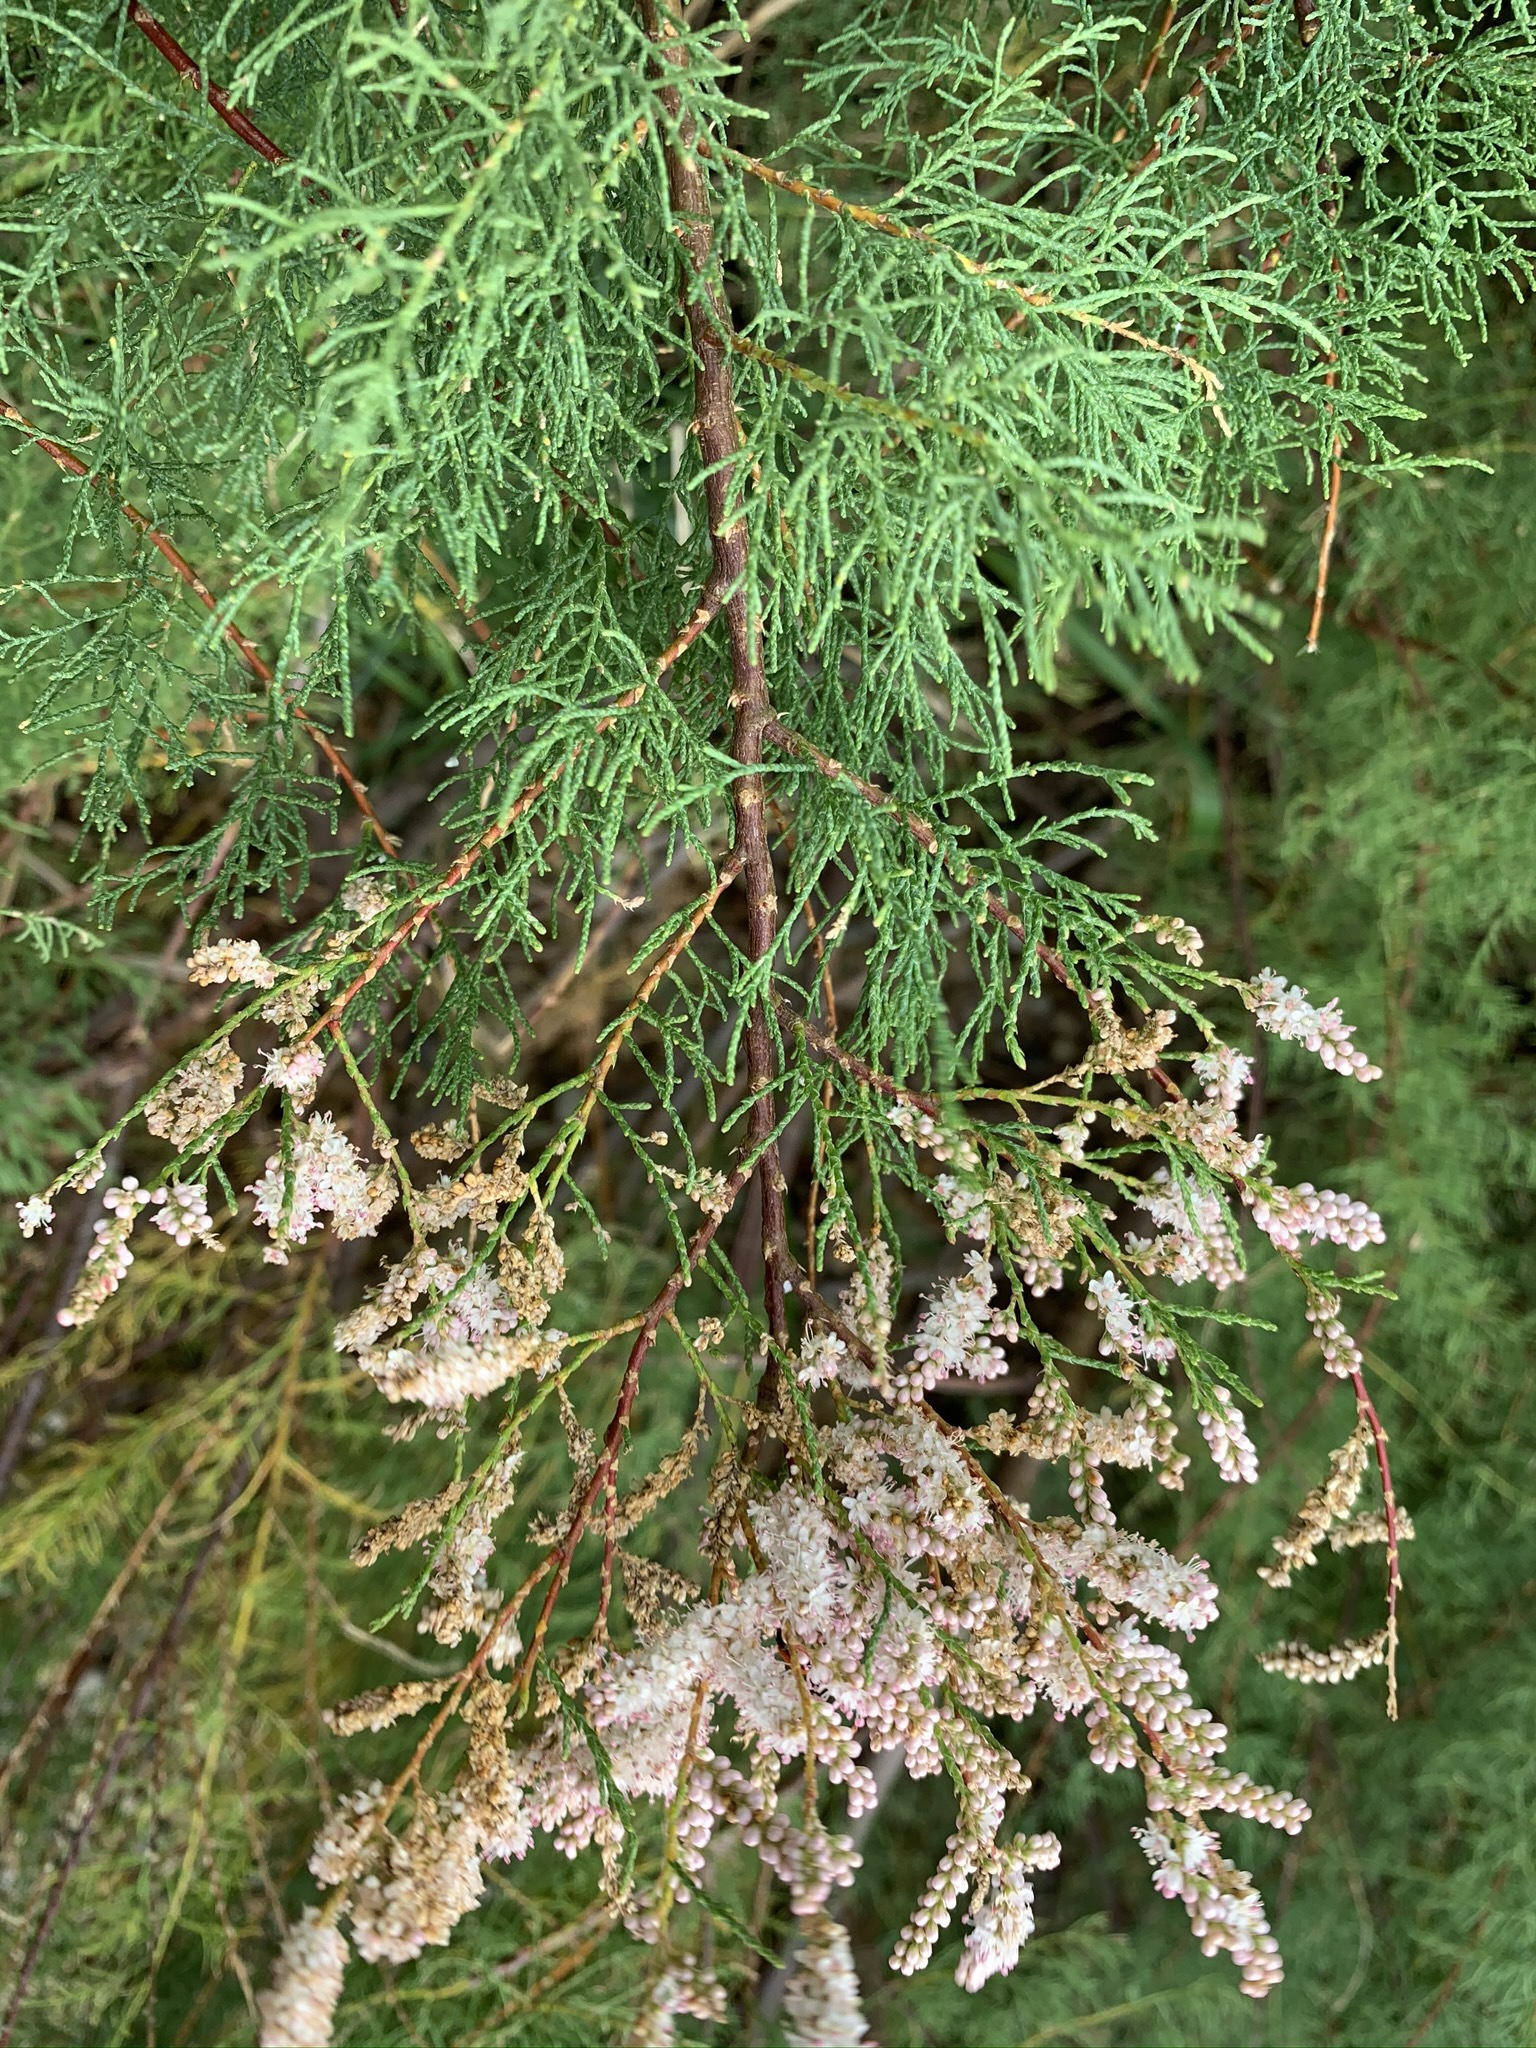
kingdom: Plantae
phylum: Tracheophyta
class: Magnoliopsida
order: Caryophyllales
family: Tamaricaceae
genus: Tamarix
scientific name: Tamarix gallica
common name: Tamarisk
